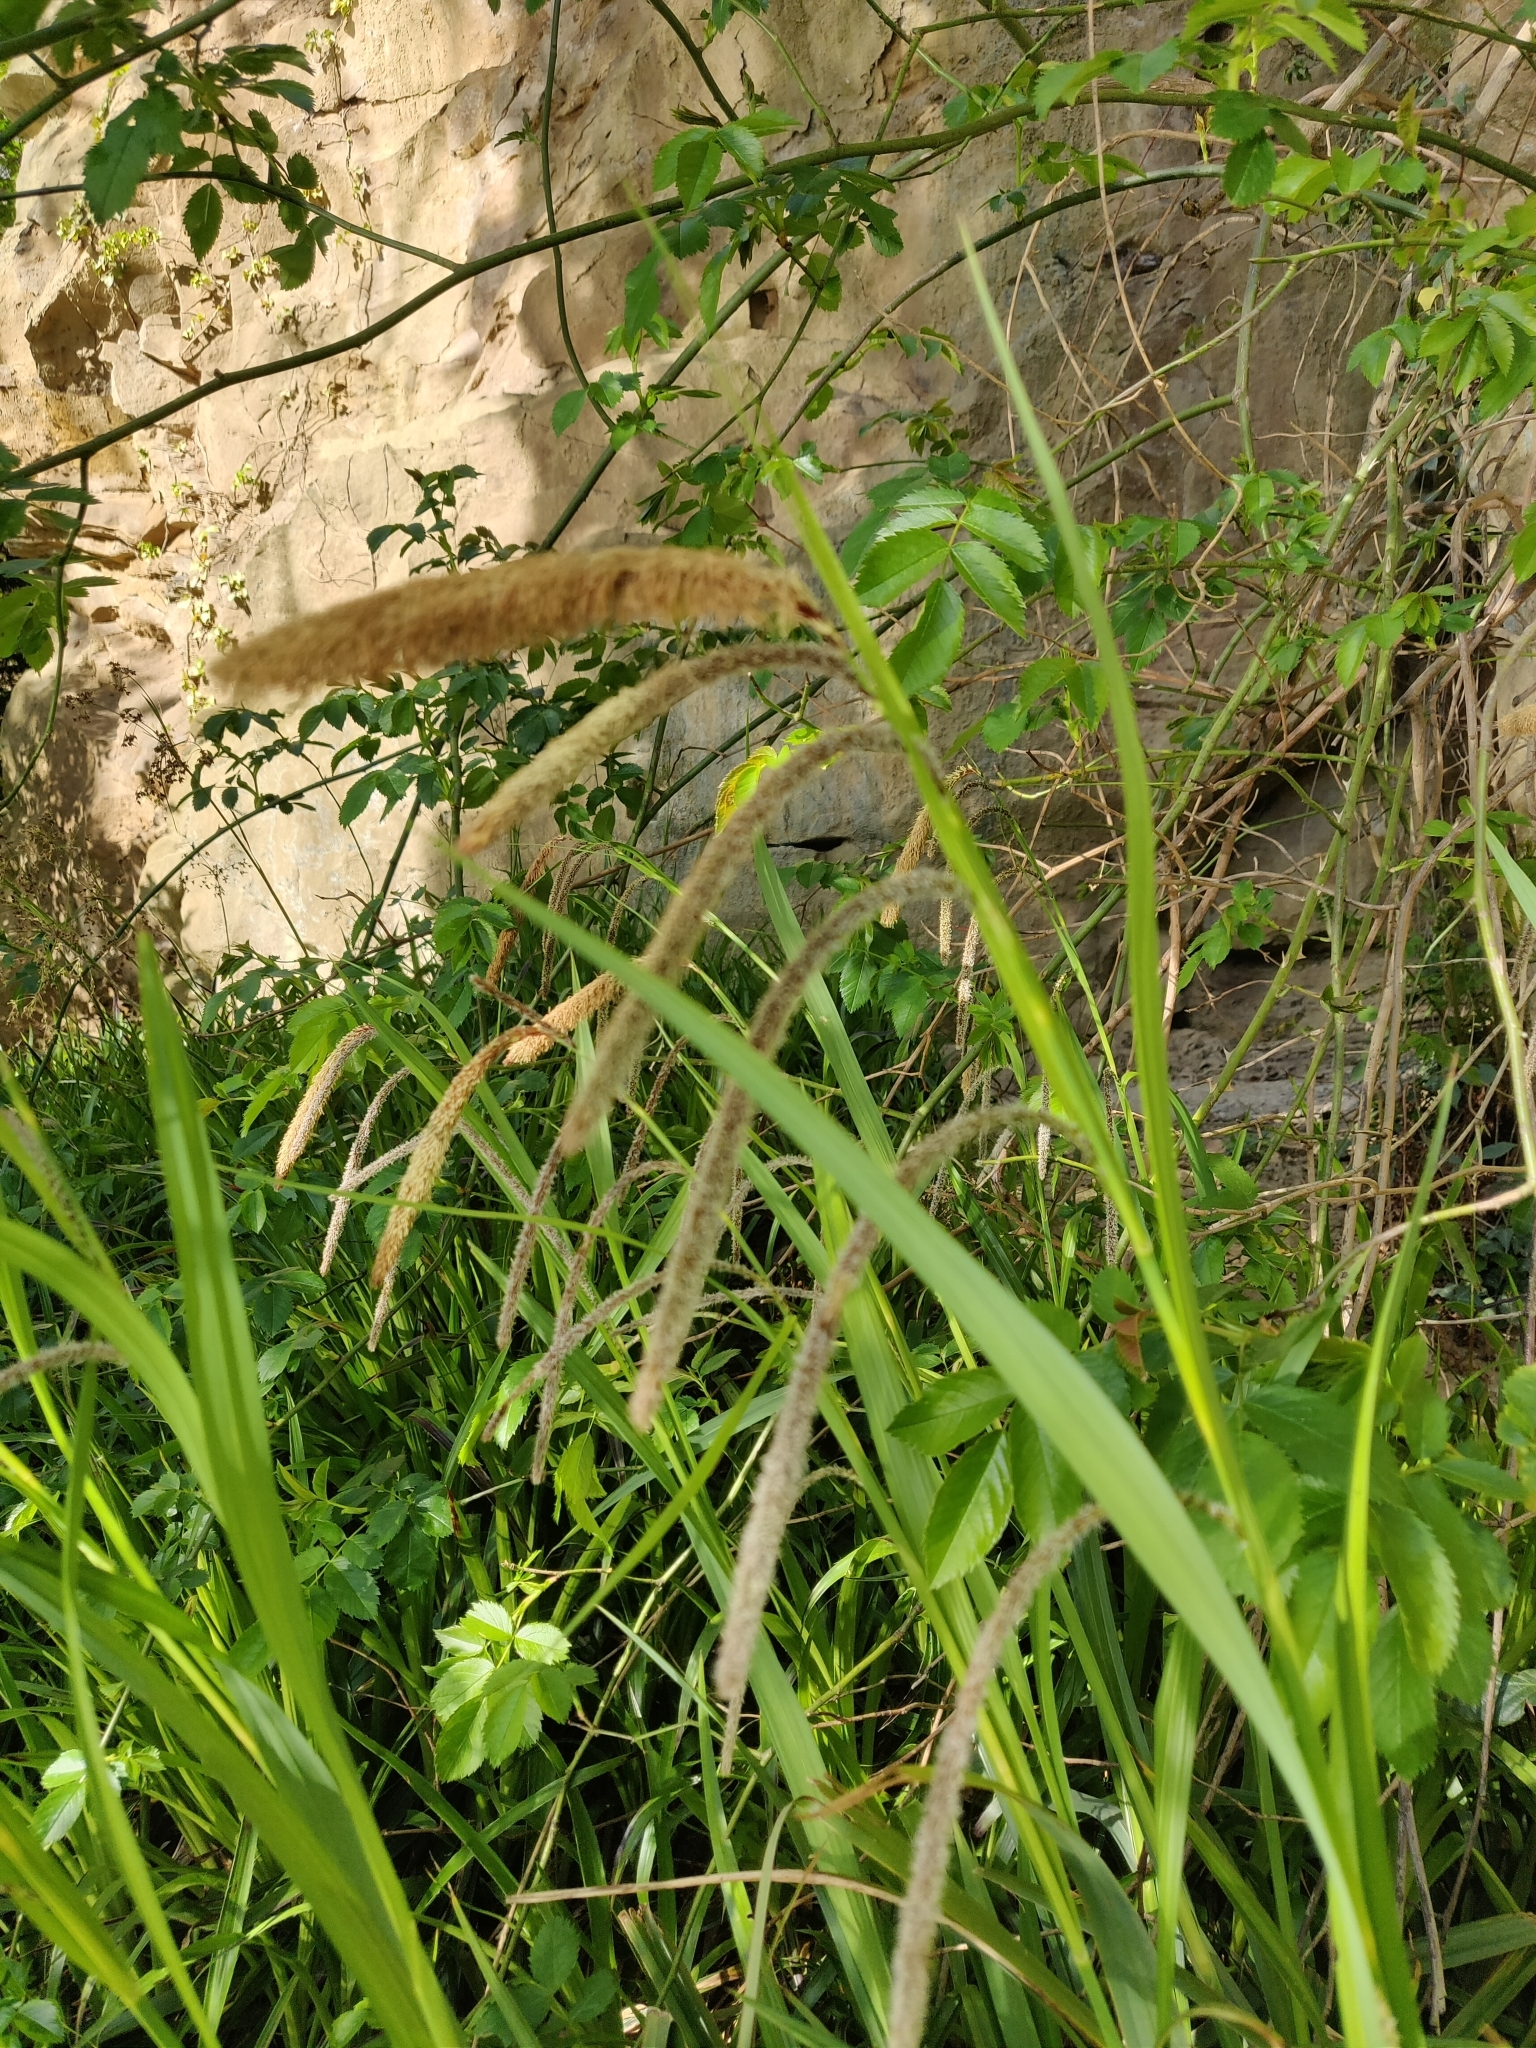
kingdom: Plantae
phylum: Tracheophyta
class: Liliopsida
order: Poales
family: Cyperaceae
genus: Carex
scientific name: Carex pendula
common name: Pendulous sedge
